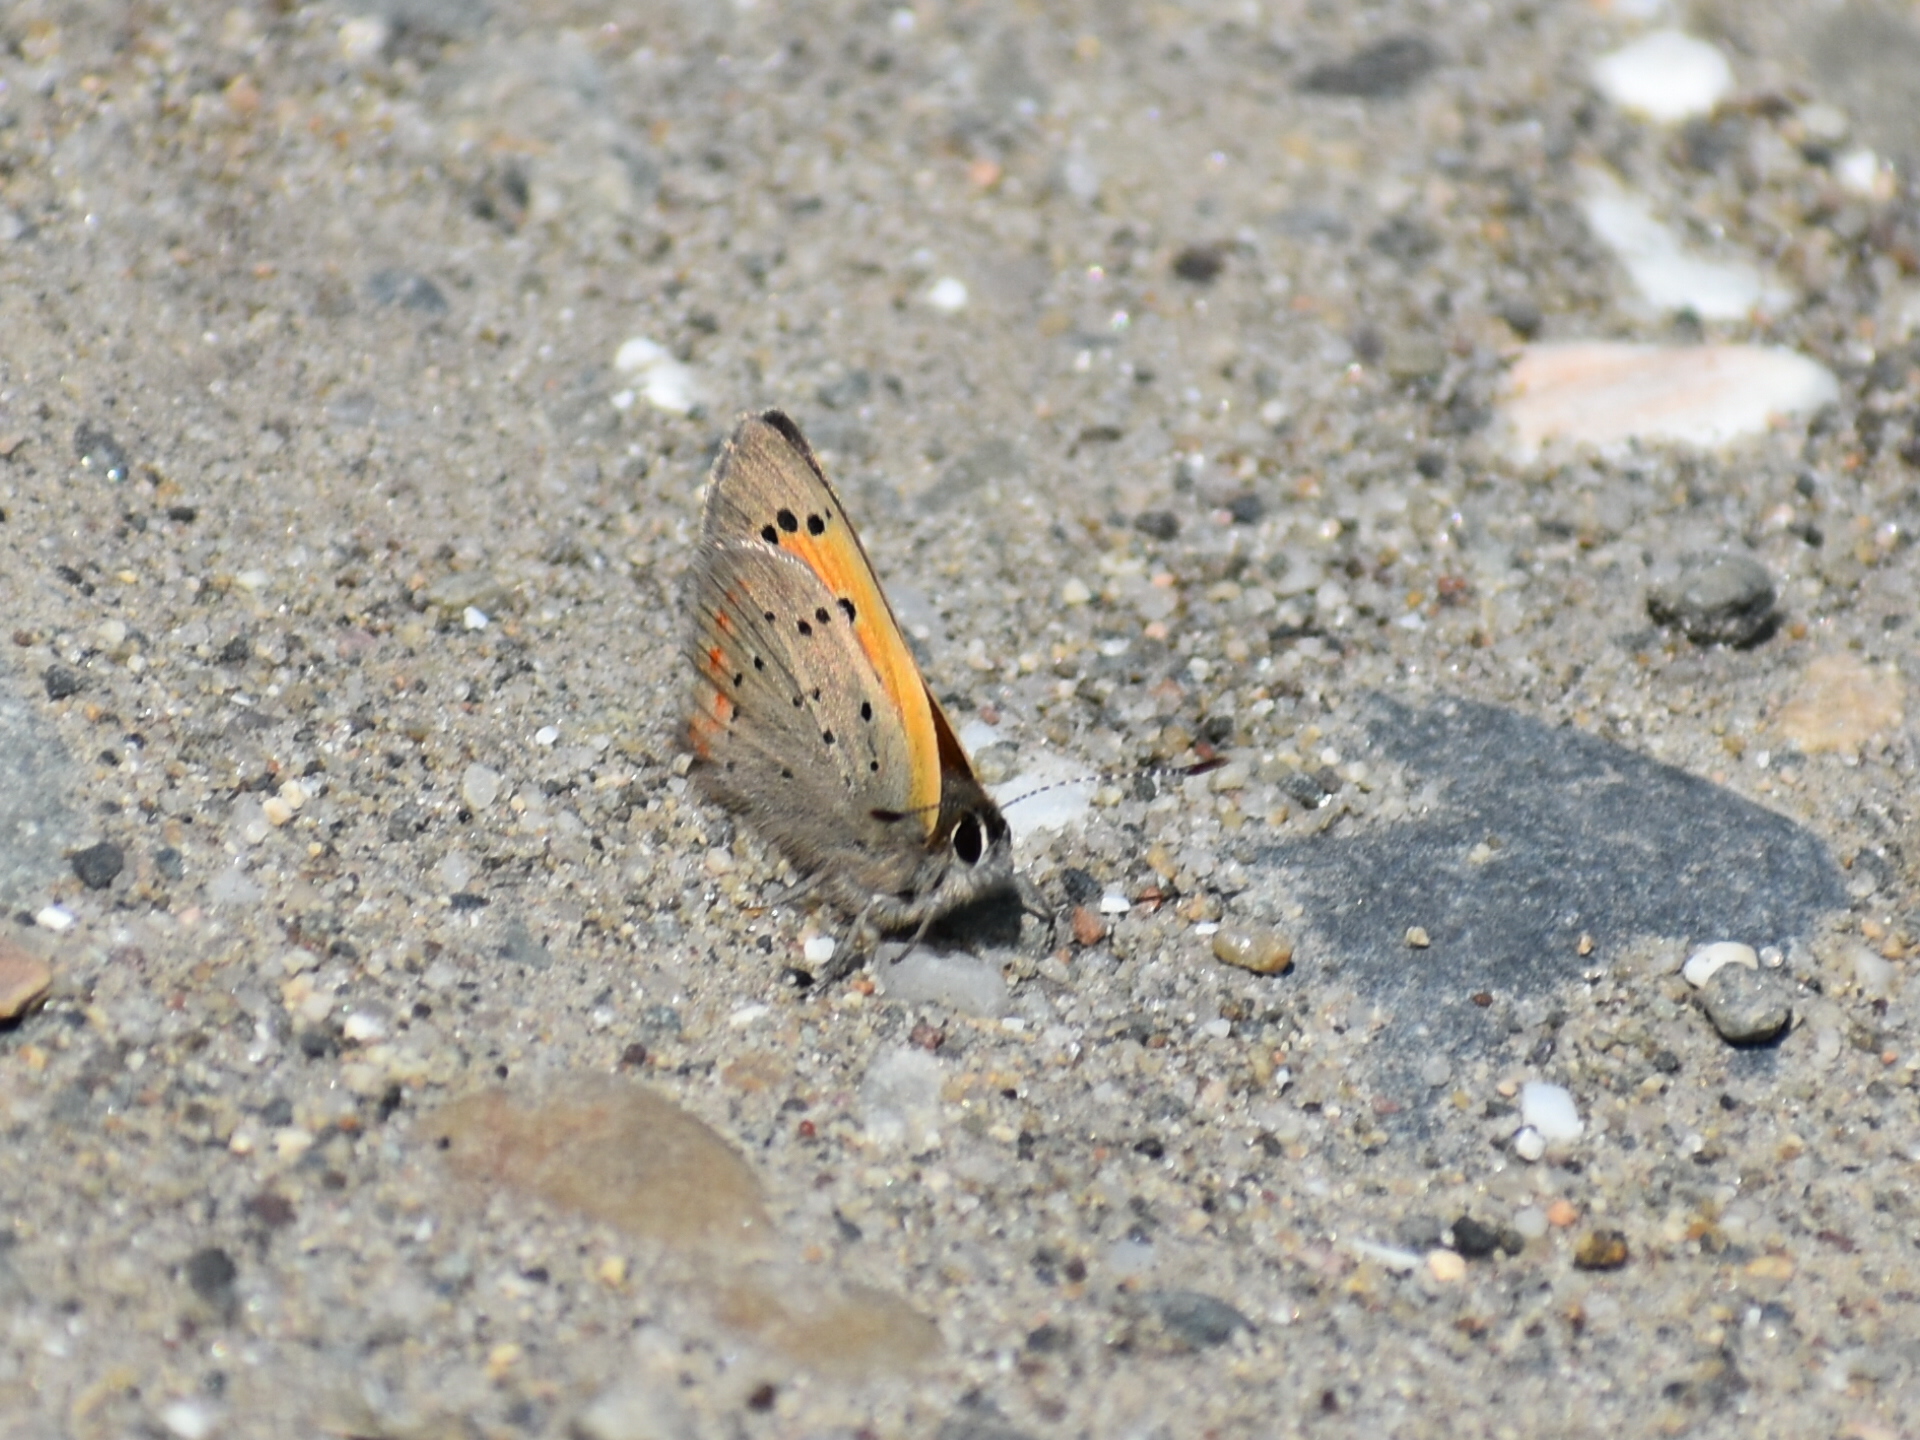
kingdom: Animalia
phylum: Arthropoda
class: Insecta
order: Lepidoptera
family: Lycaenidae
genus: Lycaena
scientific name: Lycaena hypophlaeas
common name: American copper
